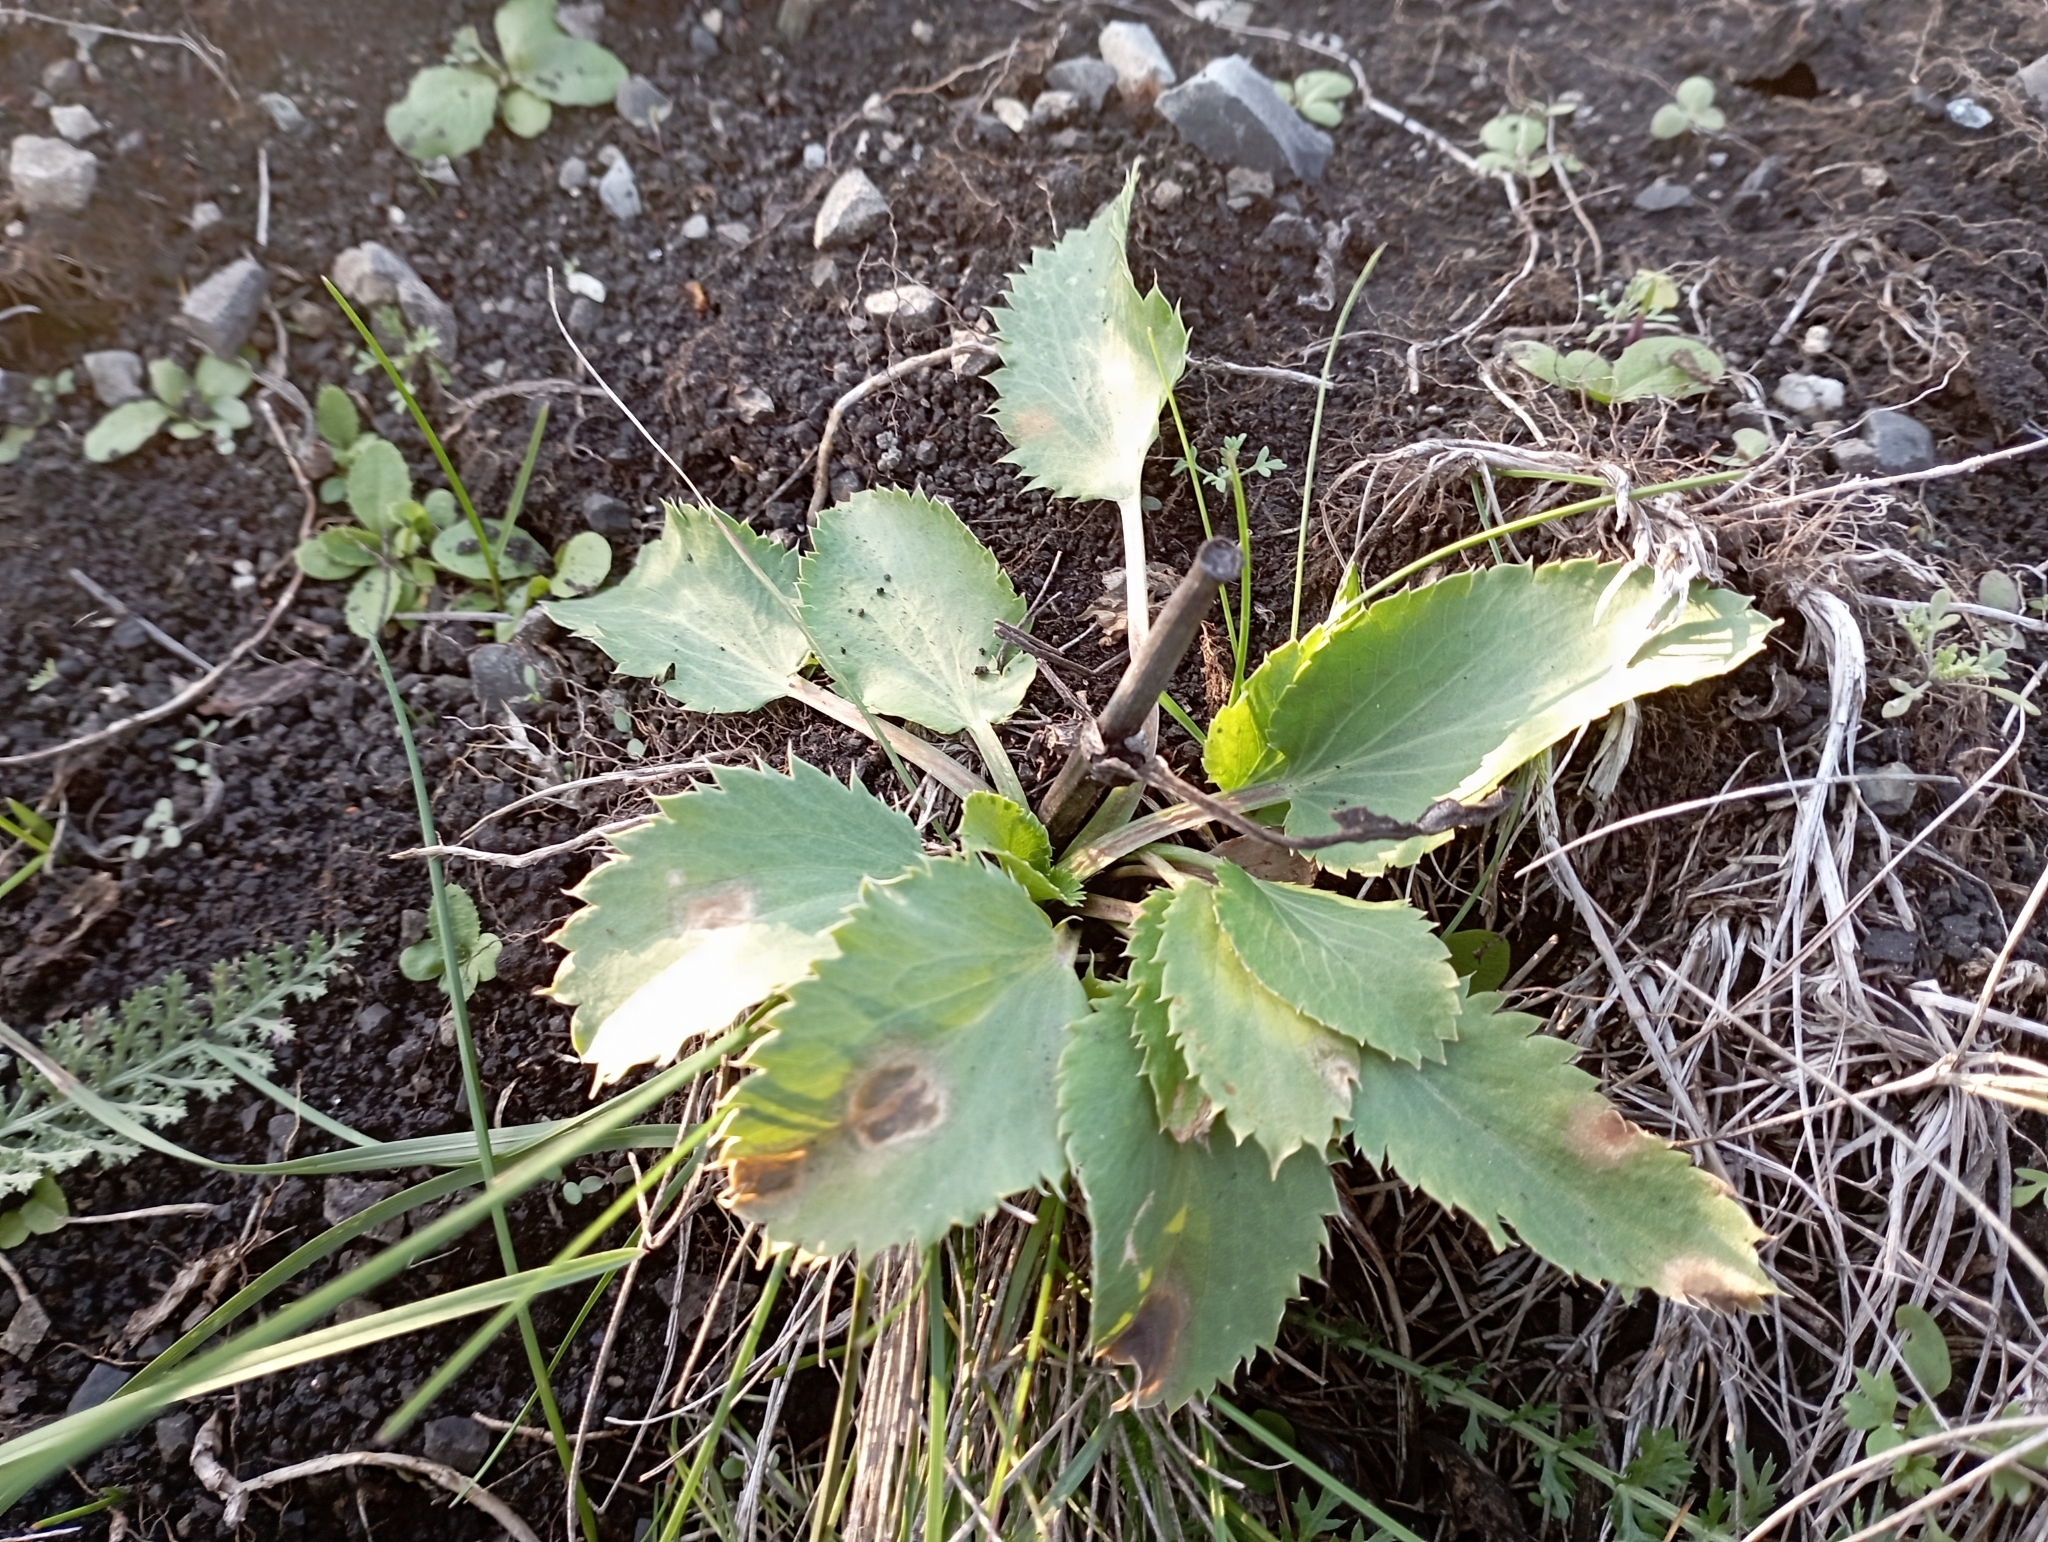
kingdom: Plantae
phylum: Tracheophyta
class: Magnoliopsida
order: Apiales
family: Apiaceae
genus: Eryngium
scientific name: Eryngium planum
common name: Blue eryngo
